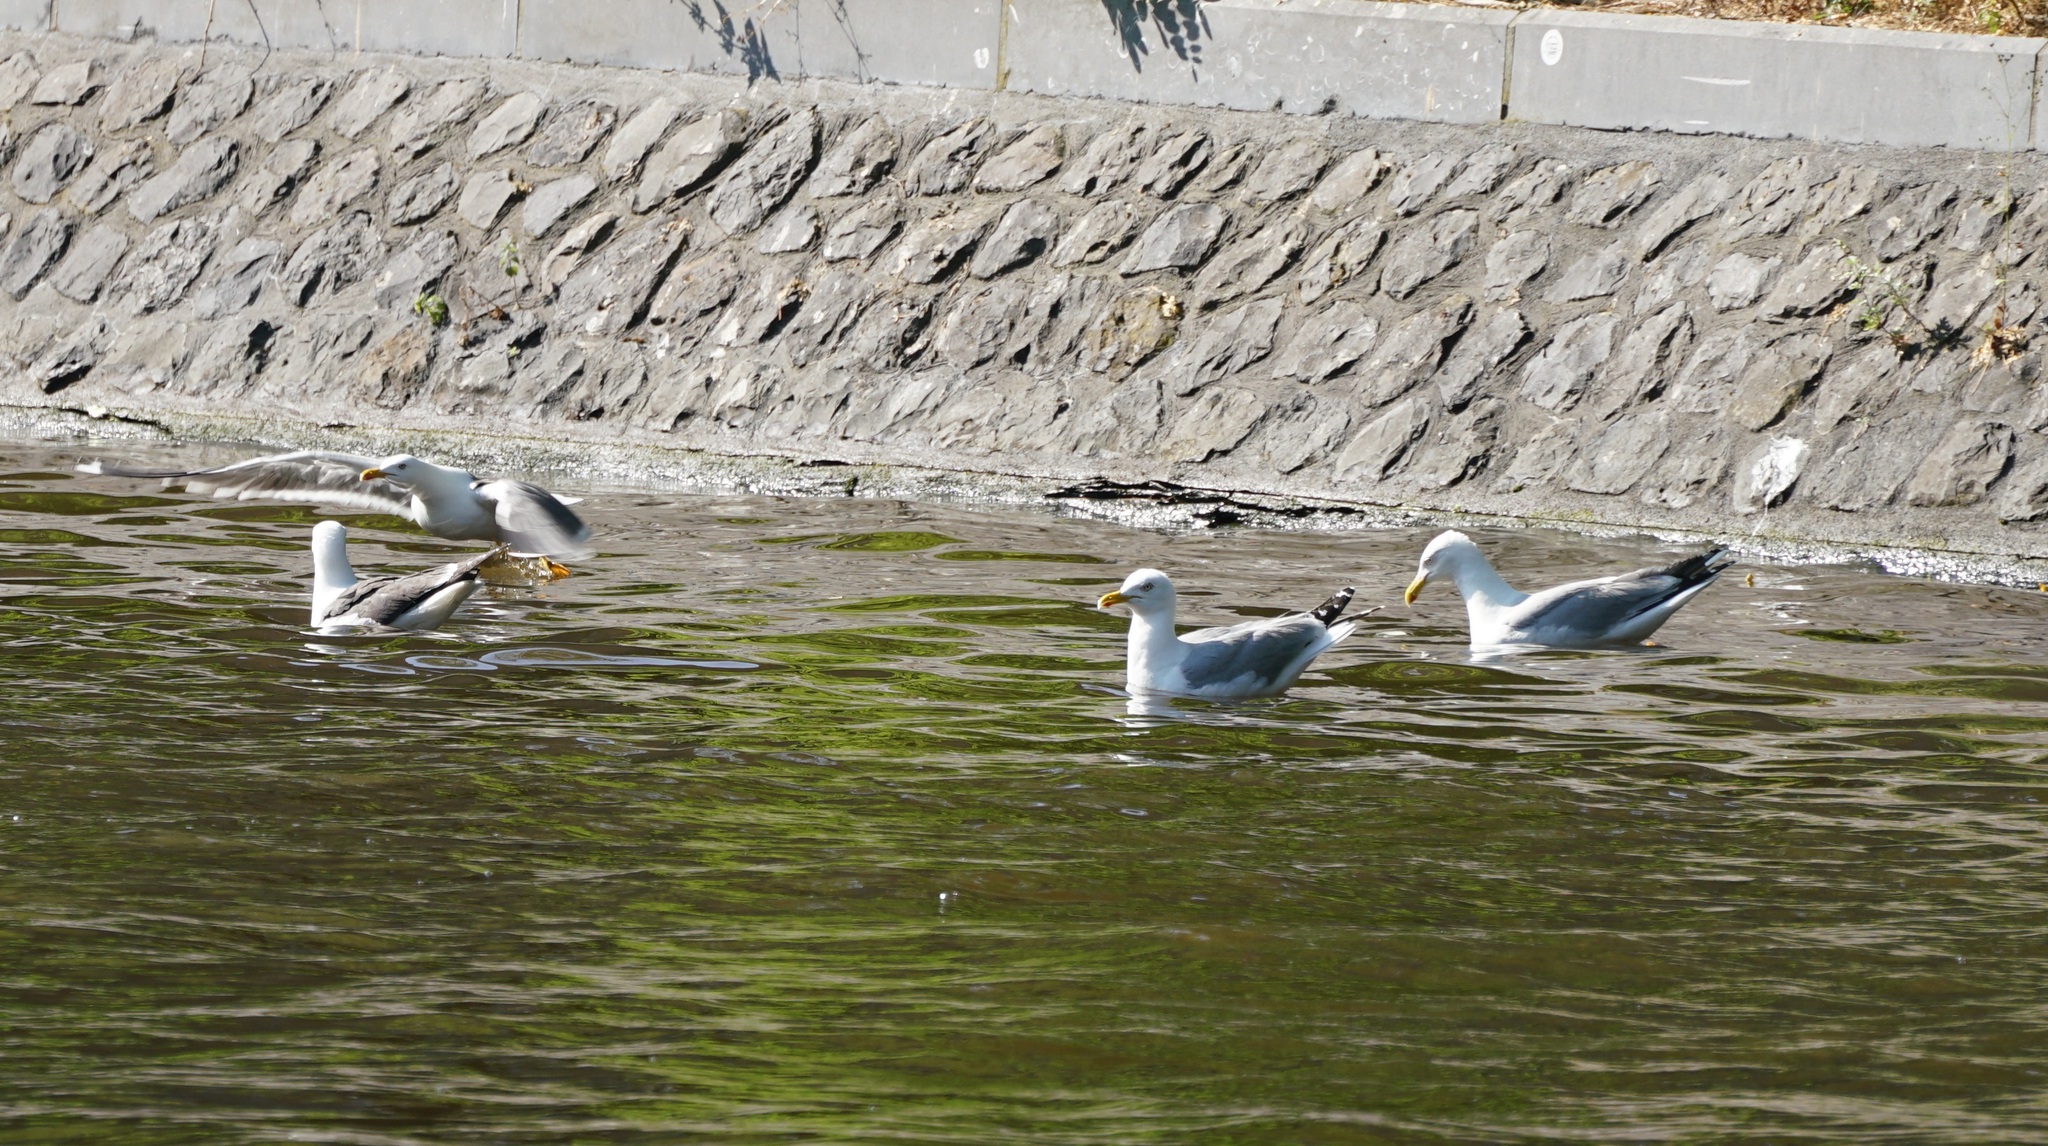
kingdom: Animalia
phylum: Chordata
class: Aves
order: Charadriiformes
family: Laridae
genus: Larus
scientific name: Larus fuscus
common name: Lesser black-backed gull
